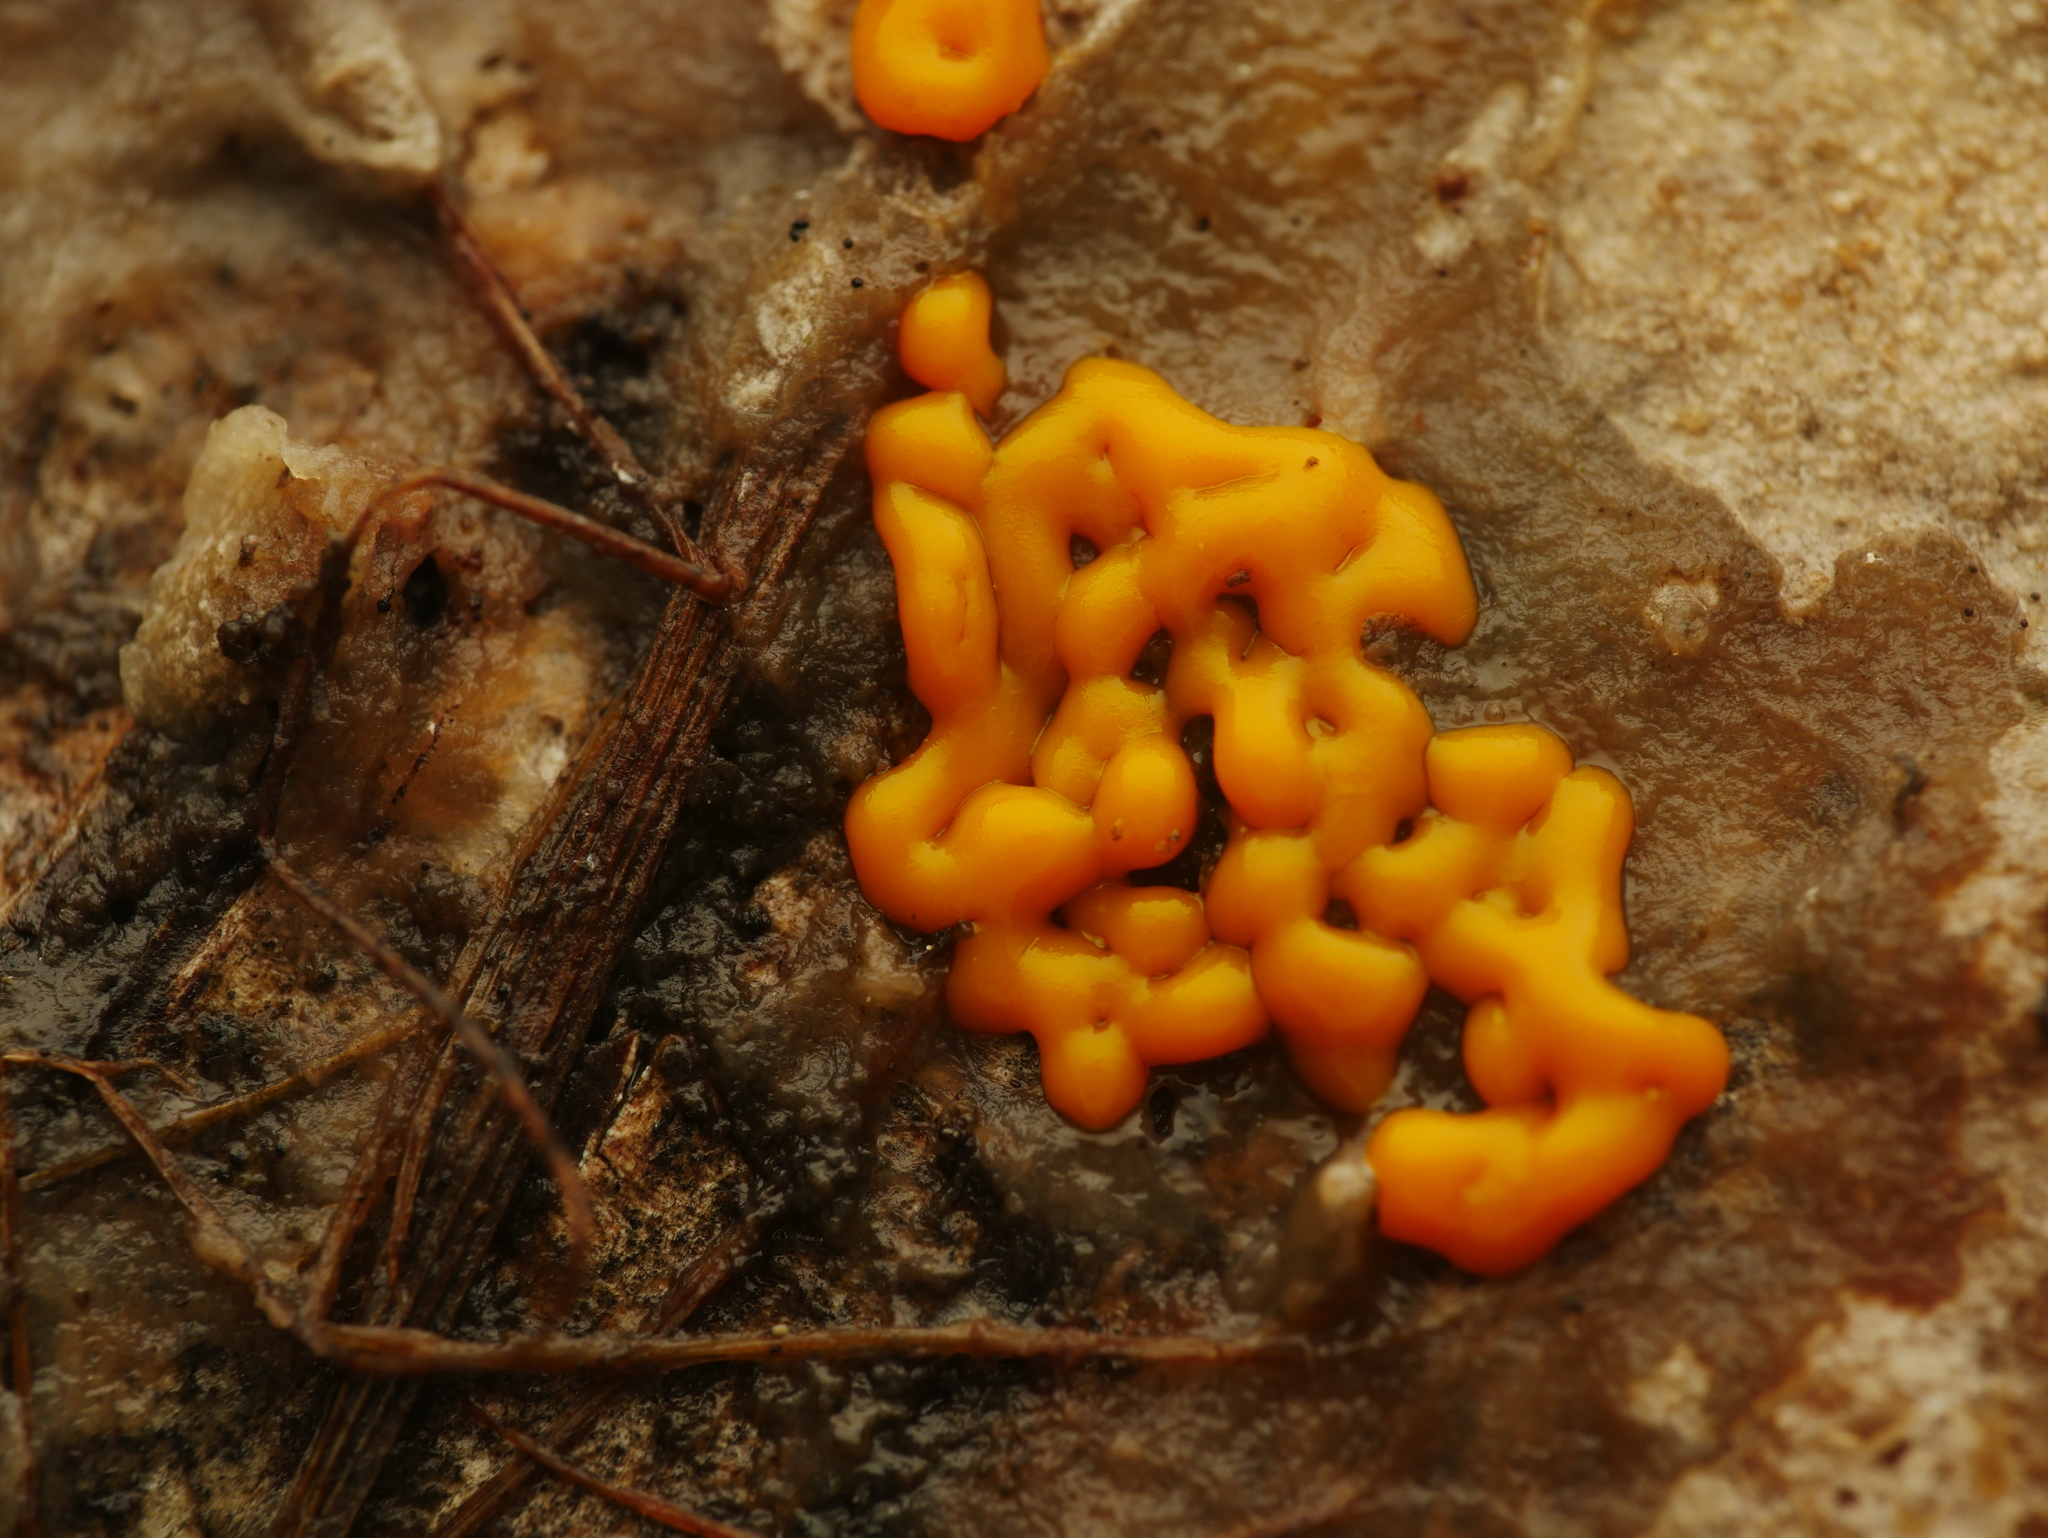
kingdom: Protozoa
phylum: Mycetozoa
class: Myxomycetes
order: Trichiales
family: Dianemataceae
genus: Dianema
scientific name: Dianema corticatum
